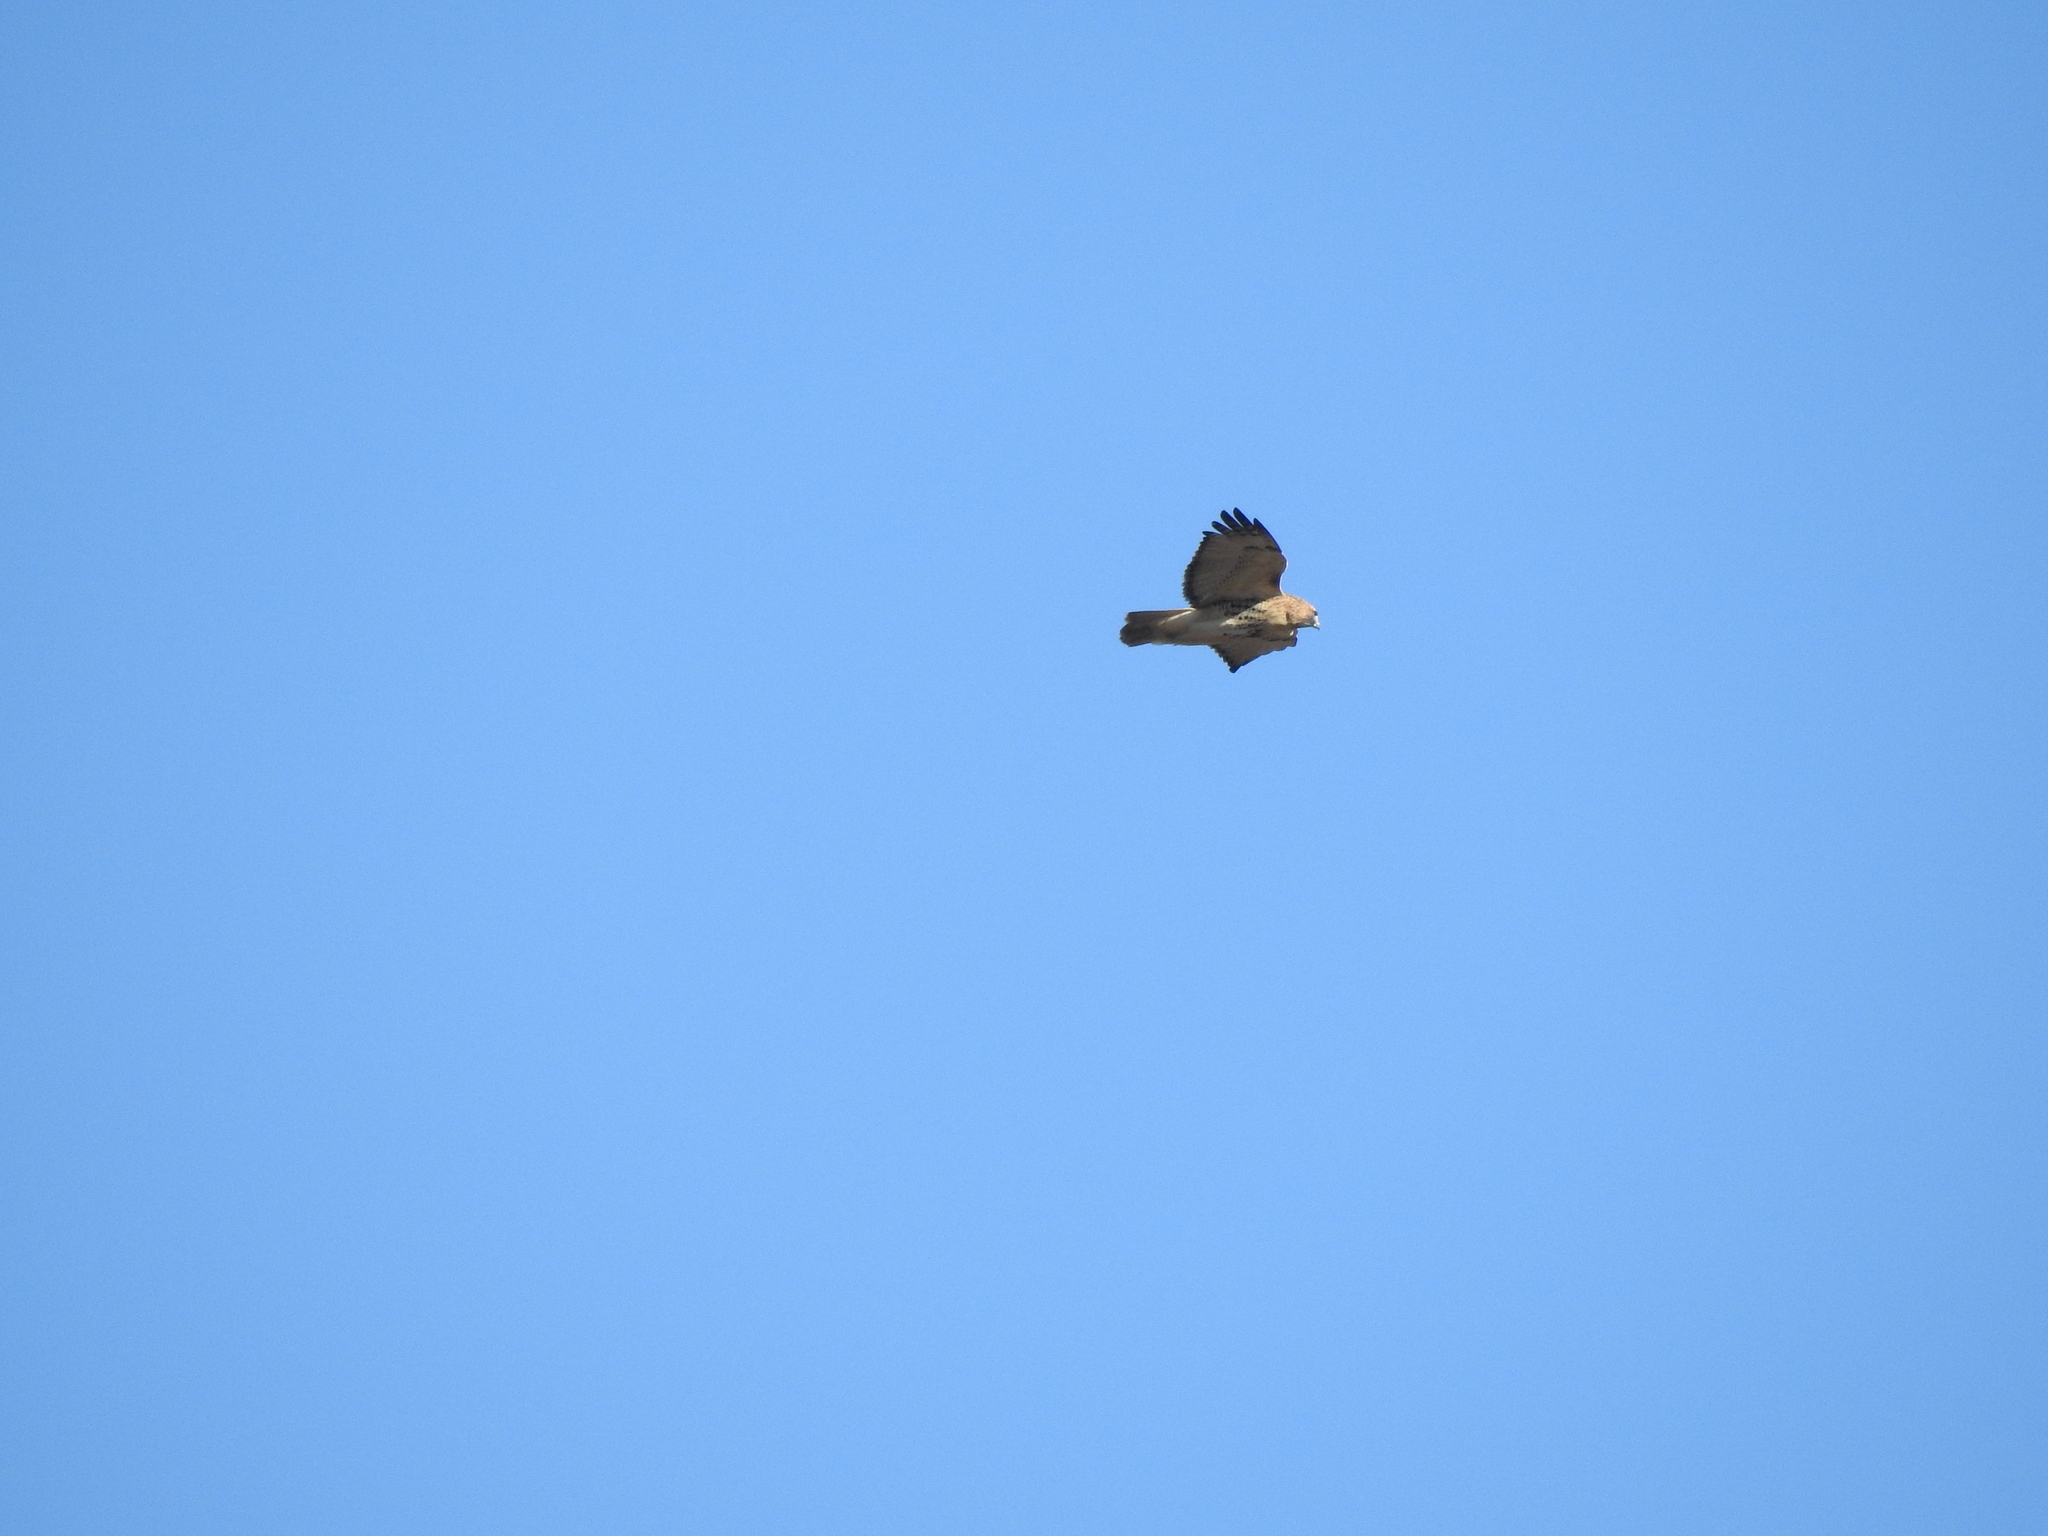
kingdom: Animalia
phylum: Chordata
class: Aves
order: Accipitriformes
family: Accipitridae
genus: Buteo
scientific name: Buteo jamaicensis
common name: Red-tailed hawk
